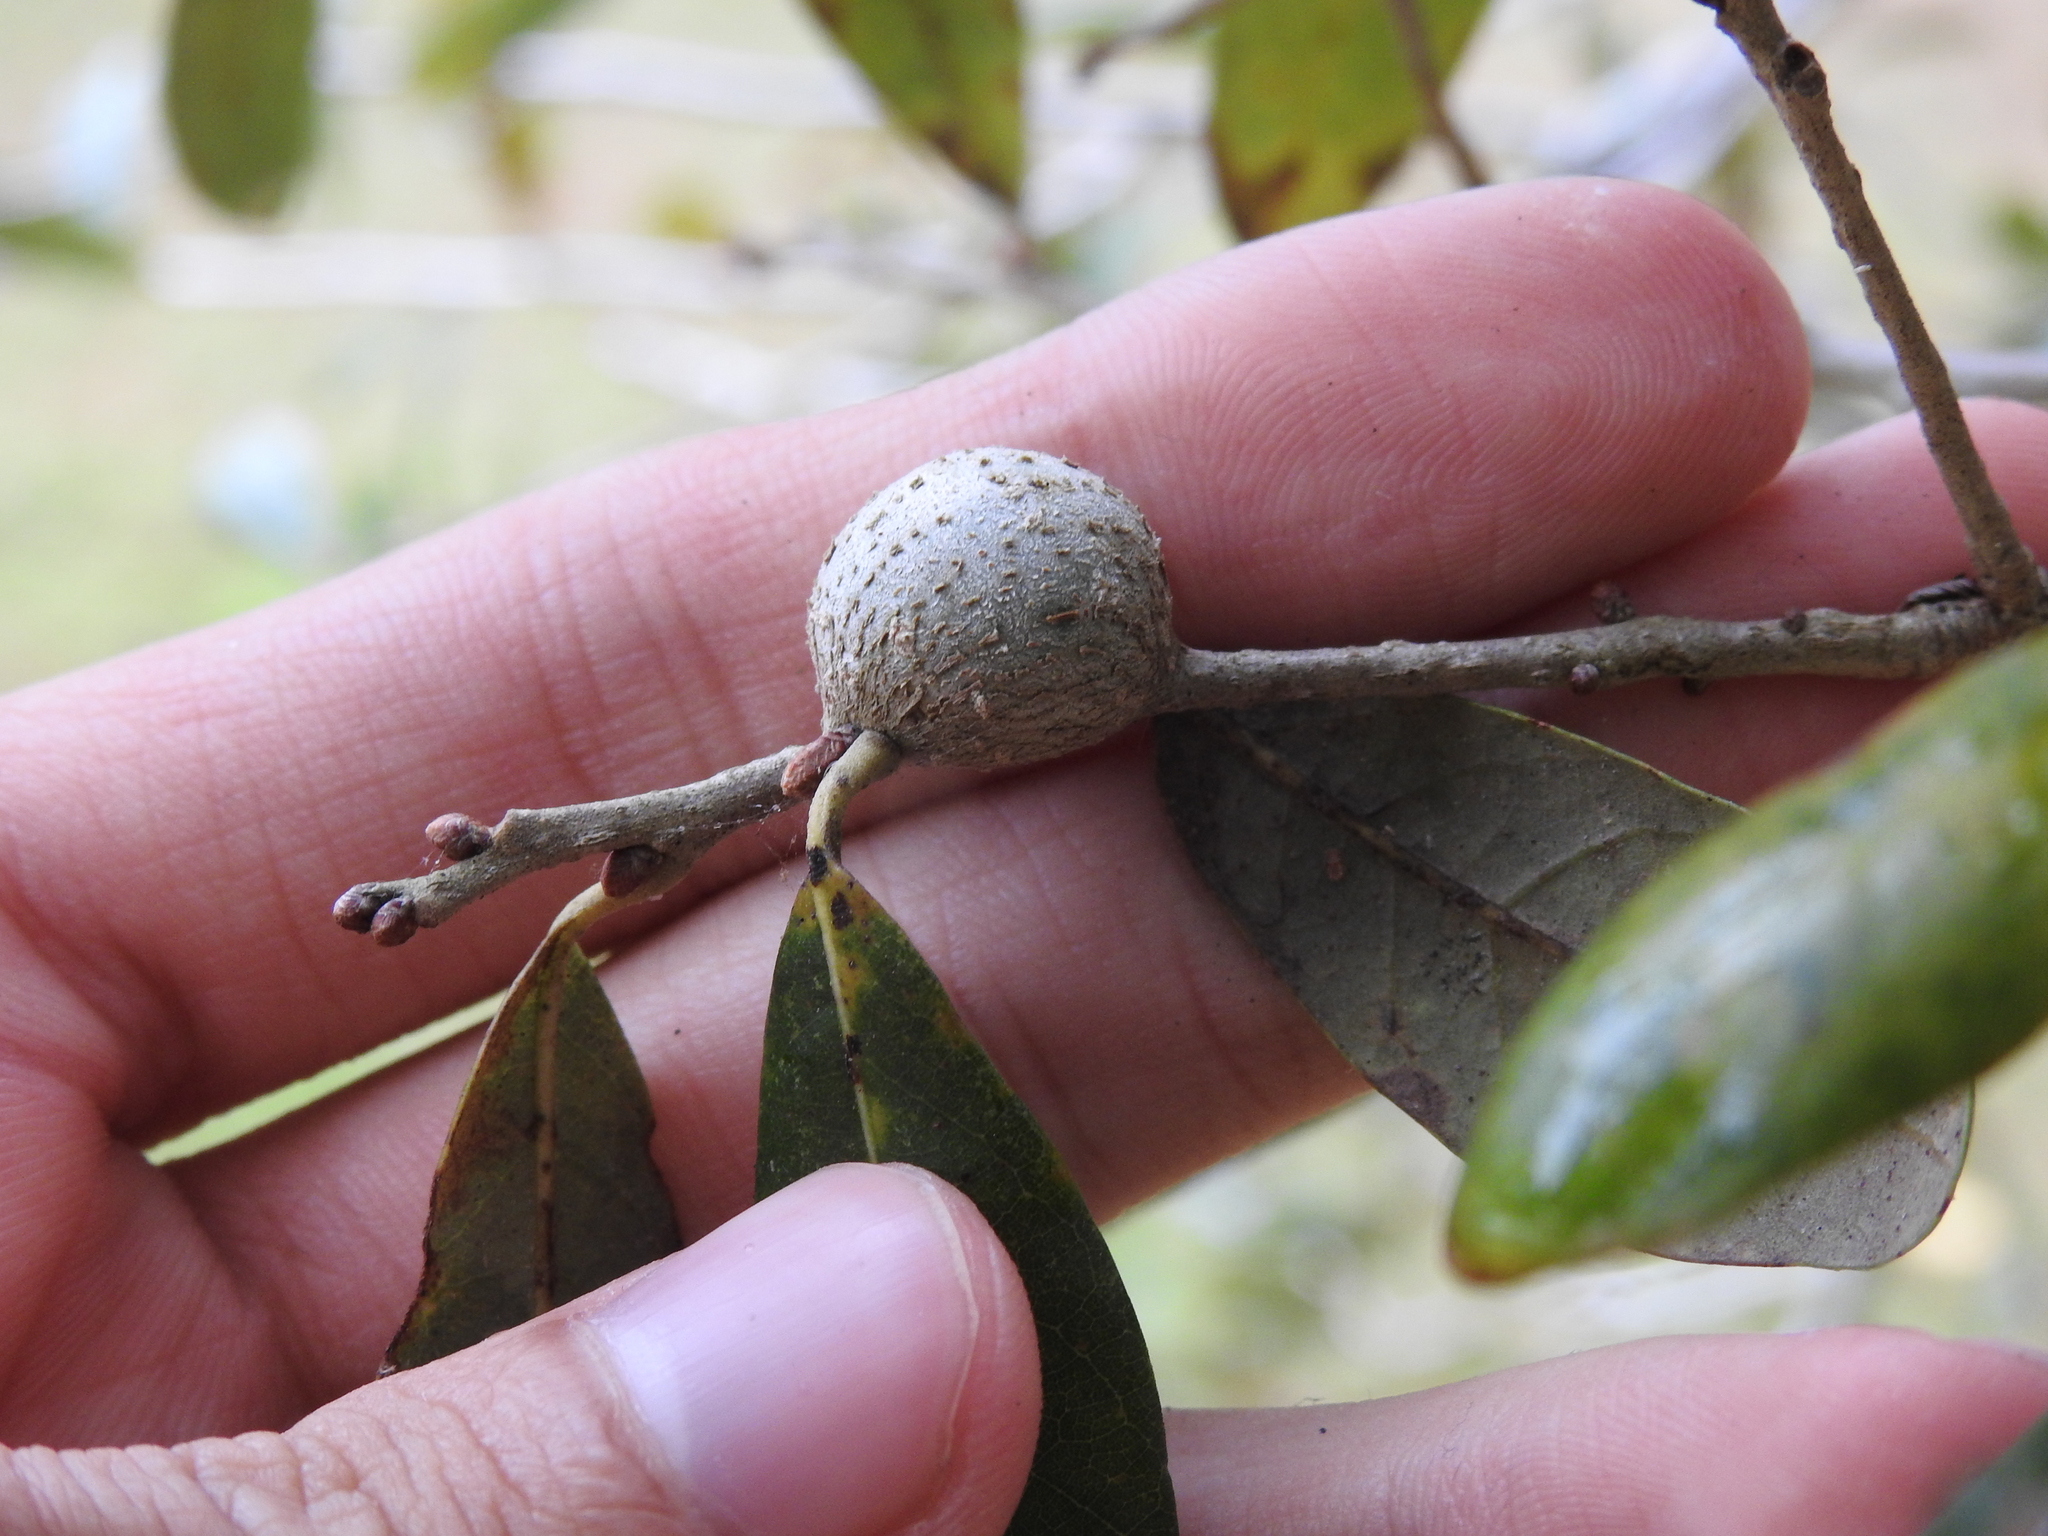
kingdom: Animalia
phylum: Arthropoda
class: Insecta
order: Hymenoptera
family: Cynipidae
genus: Callirhytis
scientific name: Callirhytis
